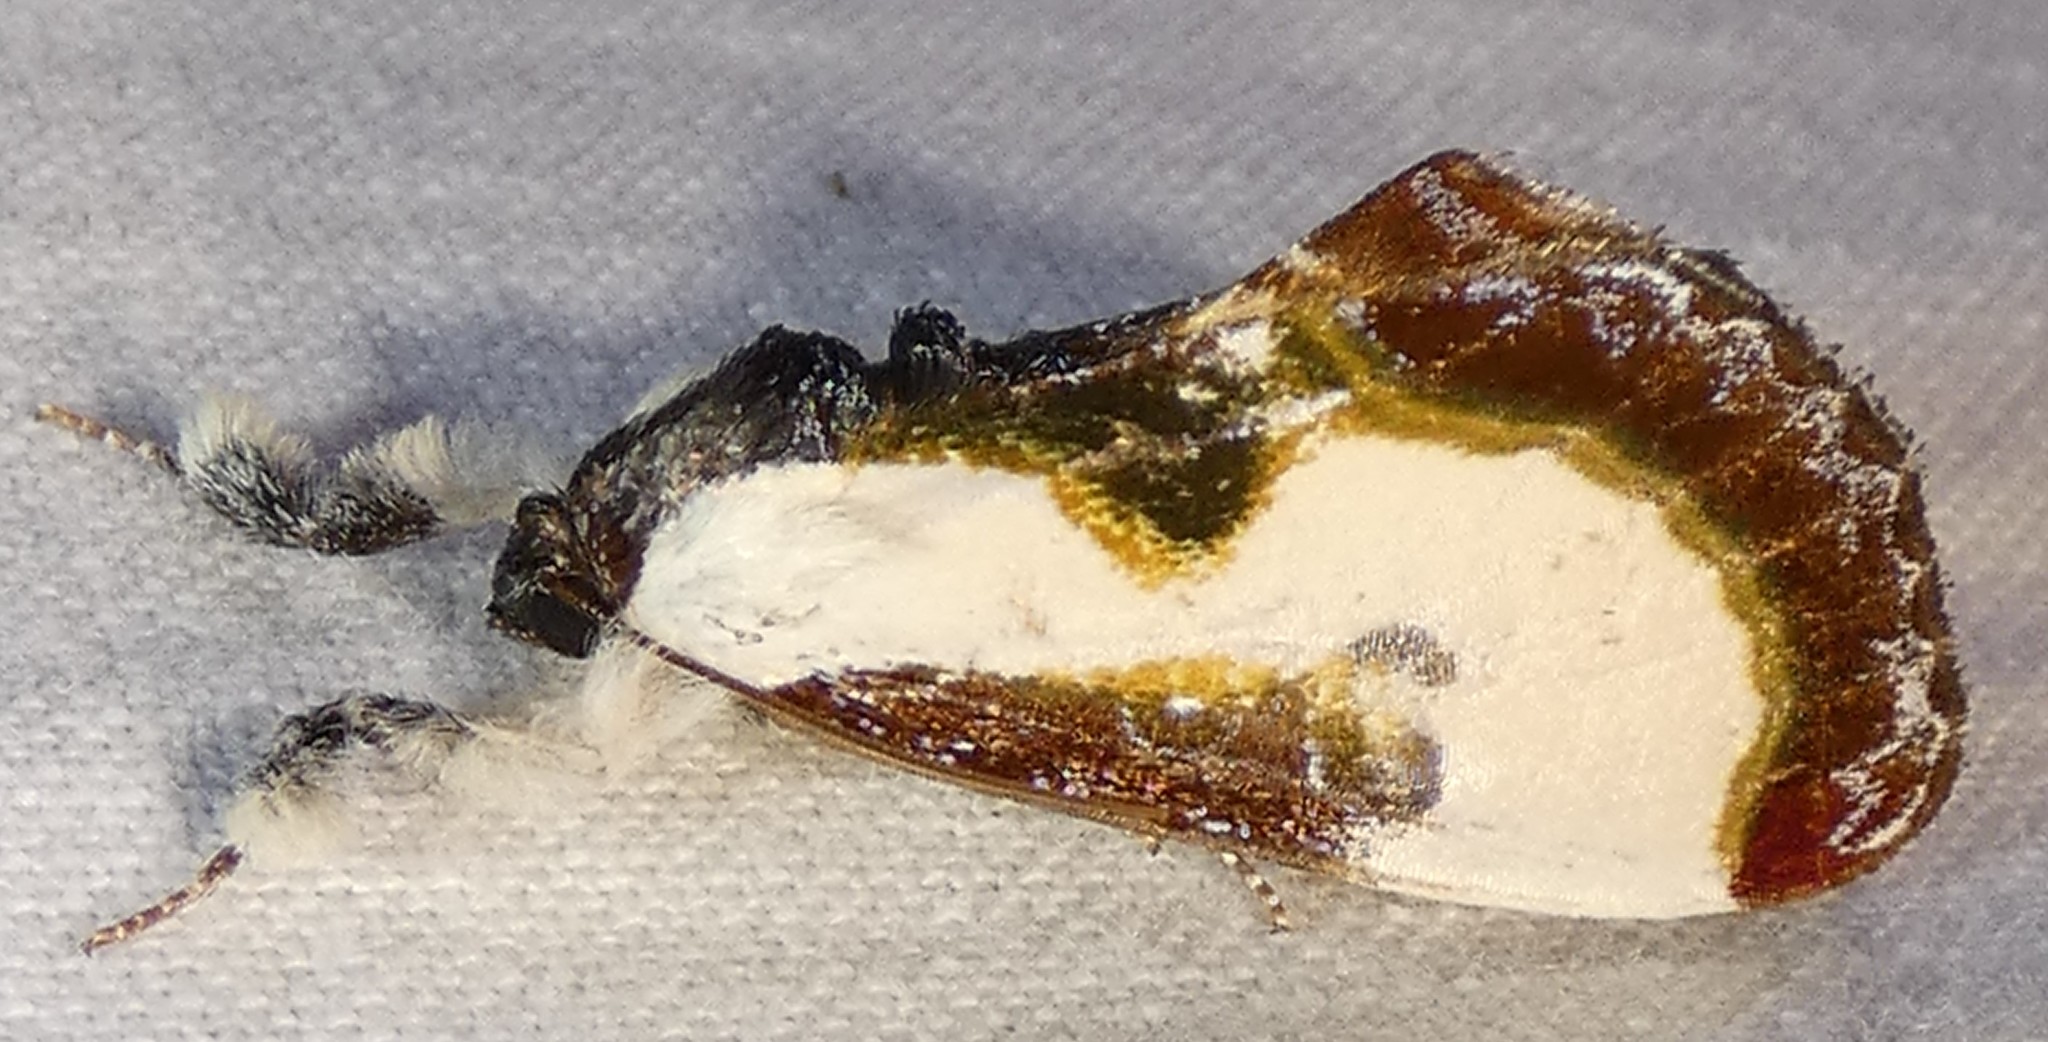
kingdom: Animalia
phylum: Arthropoda
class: Insecta
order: Lepidoptera
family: Noctuidae
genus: Eudryas
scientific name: Eudryas grata
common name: Beautiful wood-nymph
